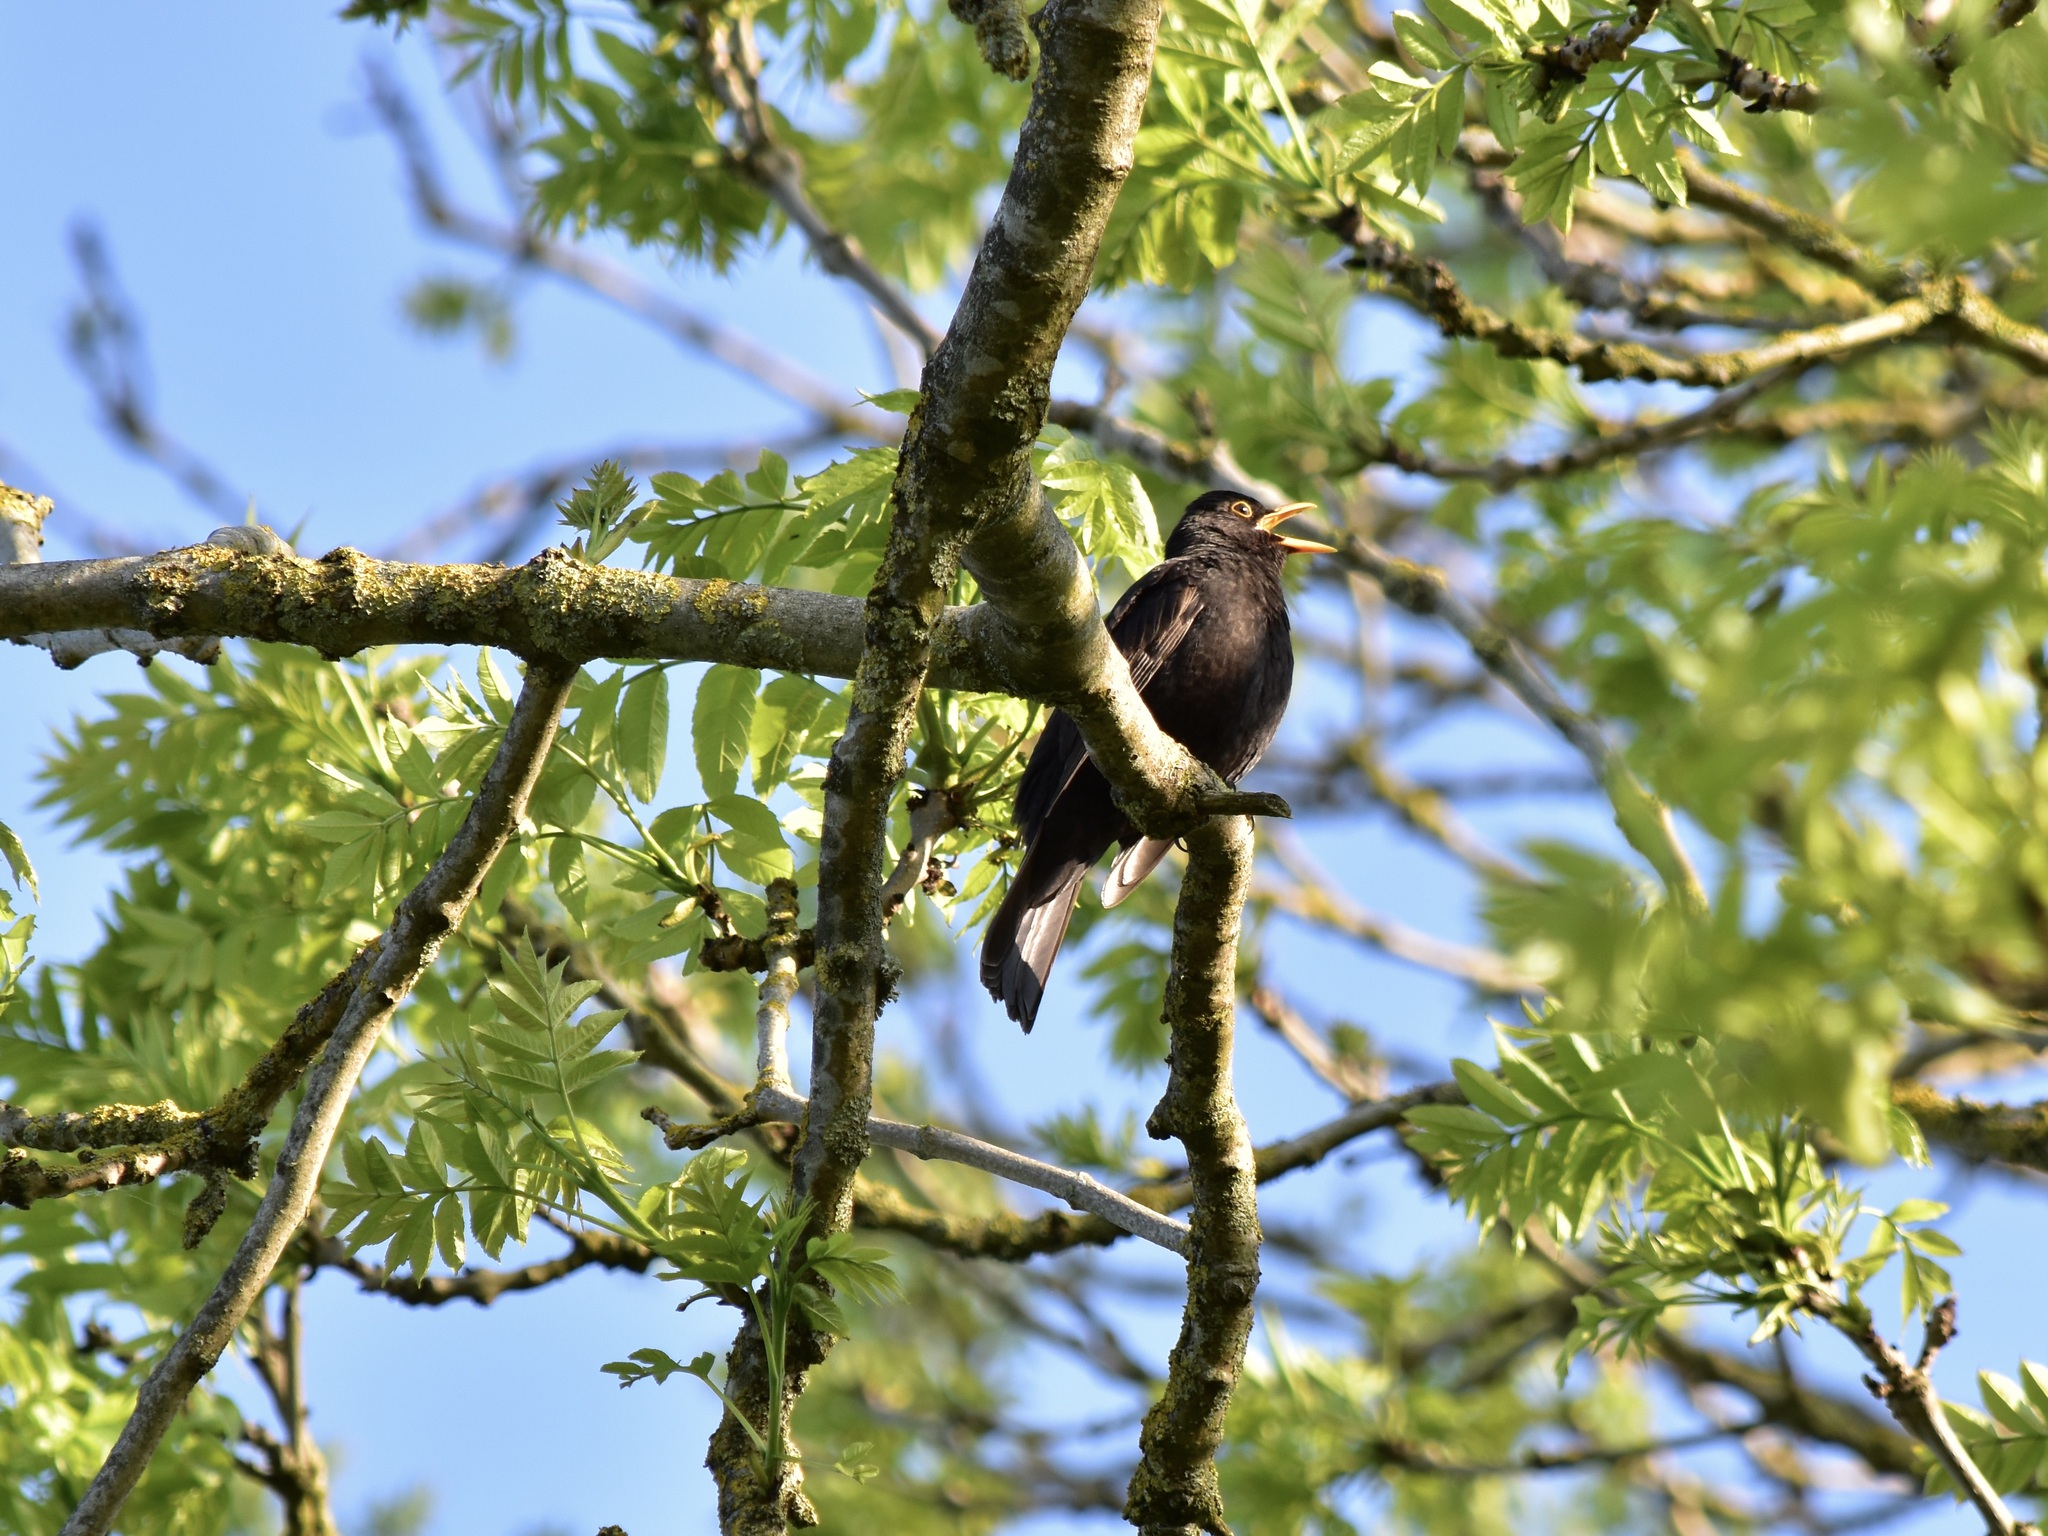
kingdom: Animalia
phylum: Chordata
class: Aves
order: Passeriformes
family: Turdidae
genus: Turdus
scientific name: Turdus merula
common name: Common blackbird
